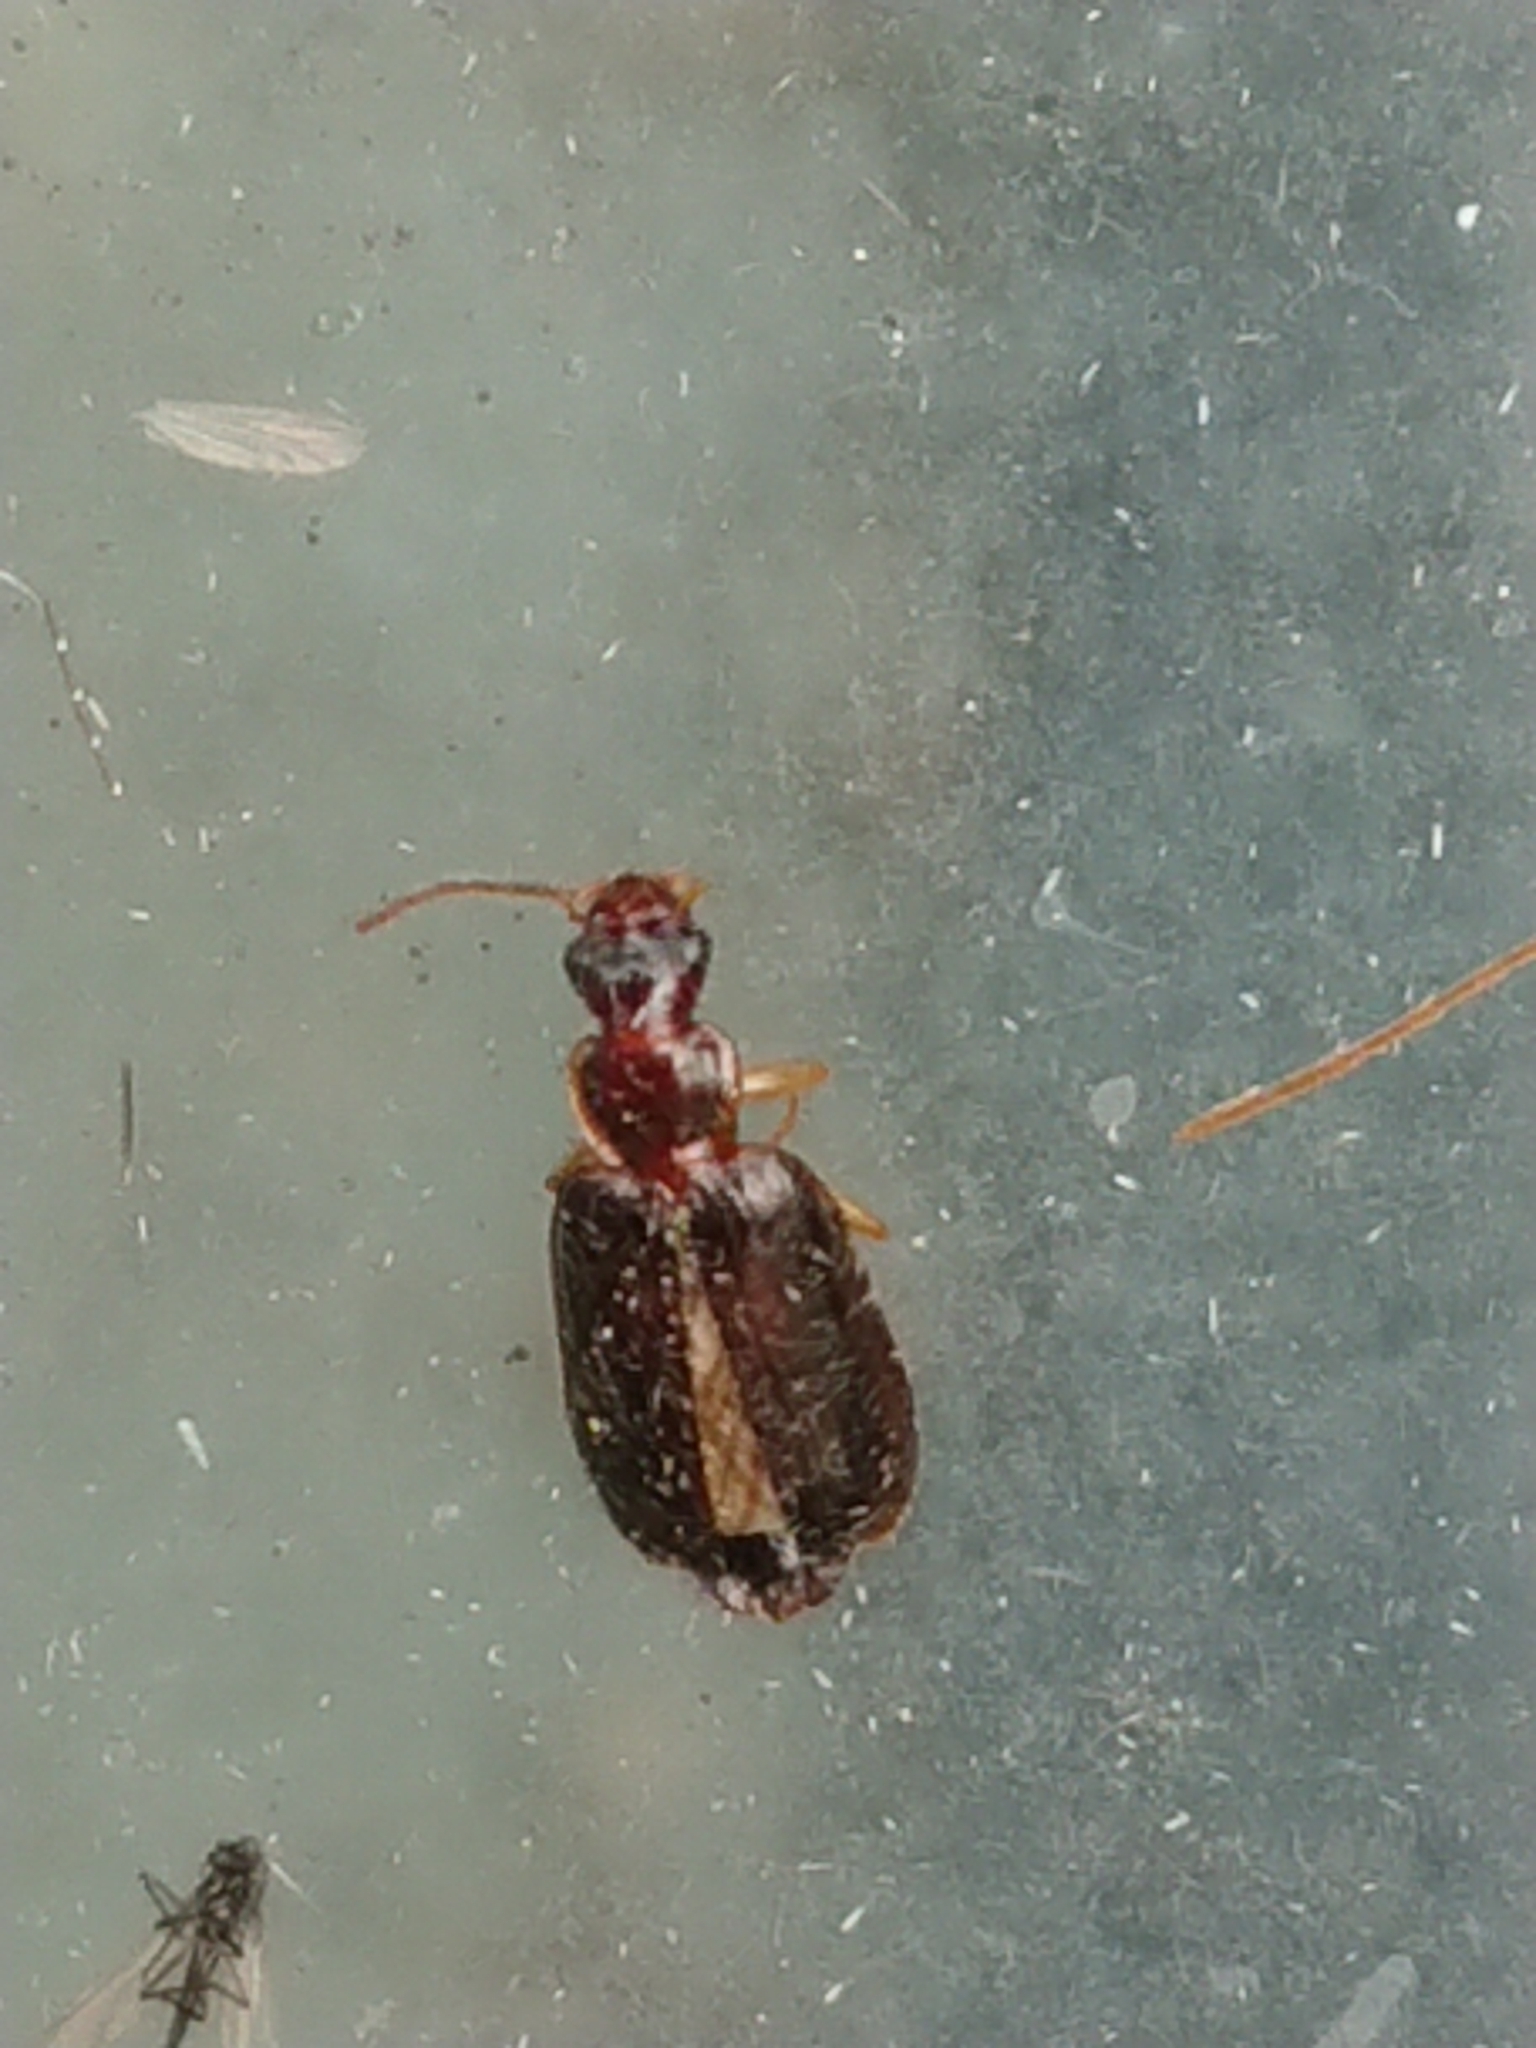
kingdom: Animalia
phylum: Arthropoda
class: Insecta
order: Coleoptera
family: Carabidae
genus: Dromius
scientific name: Dromius meridionalis
